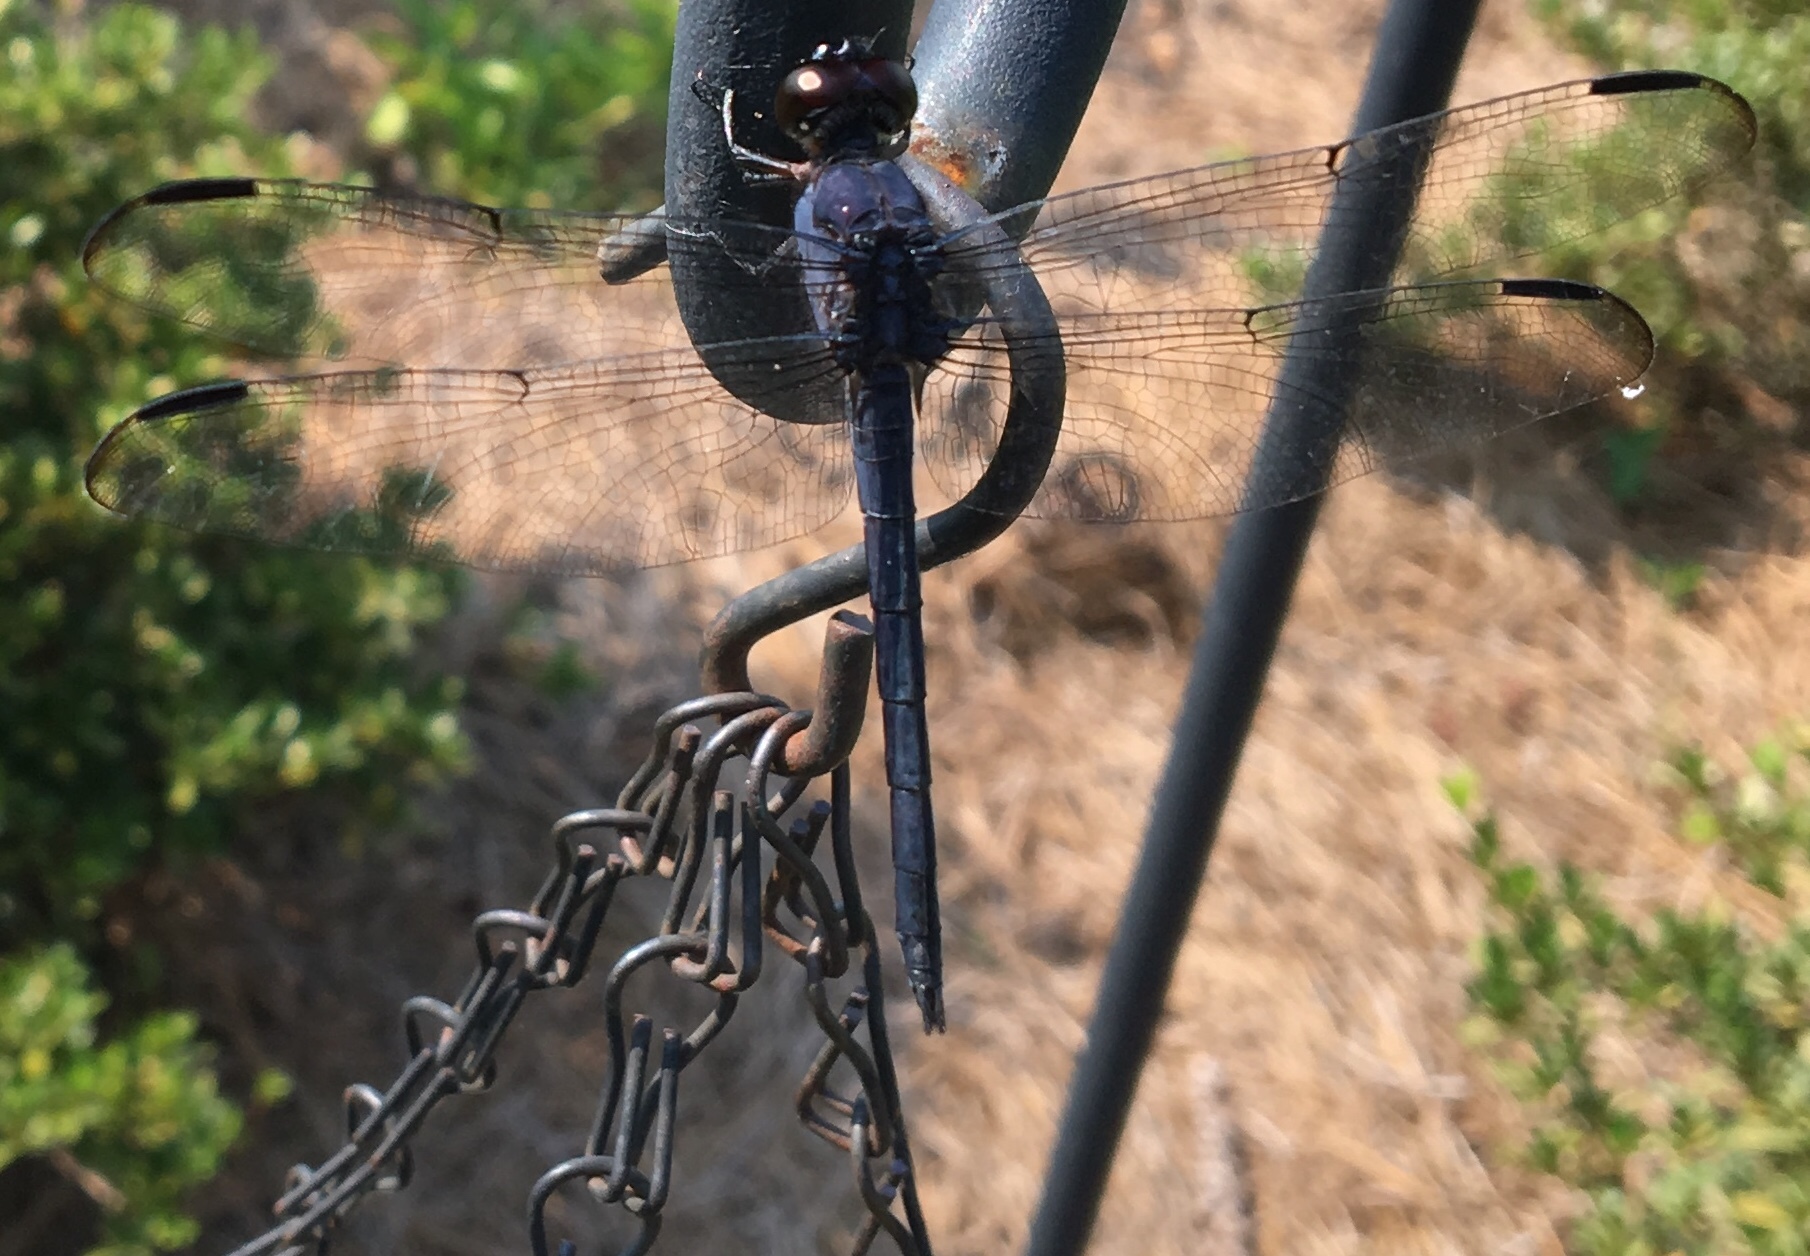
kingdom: Animalia
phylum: Arthropoda
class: Insecta
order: Odonata
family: Libellulidae
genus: Libellula
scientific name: Libellula incesta
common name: Slaty skimmer
